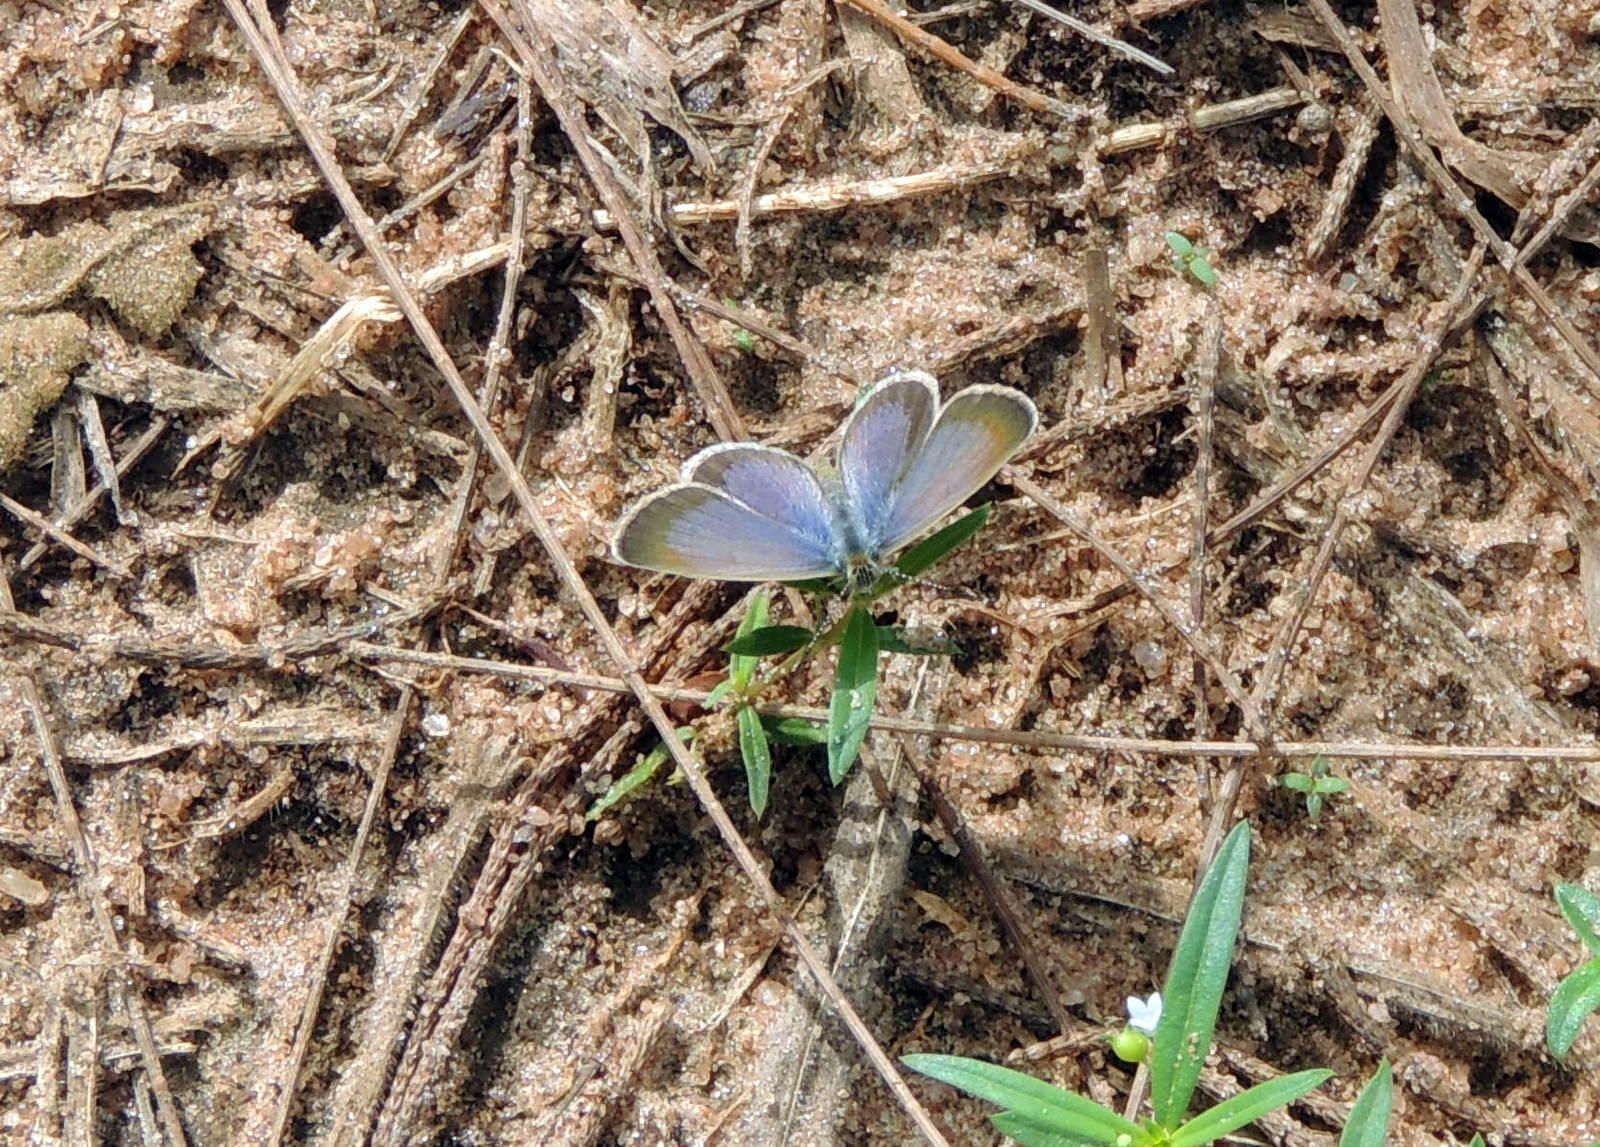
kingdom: Animalia
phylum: Arthropoda
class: Insecta
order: Lepidoptera
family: Lycaenidae
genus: Zizeeria
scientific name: Zizeeria knysna
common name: African grass blue
